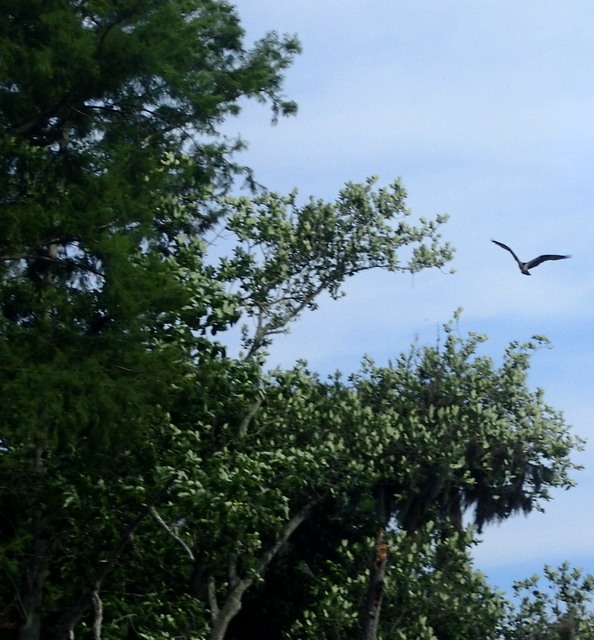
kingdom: Animalia
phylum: Chordata
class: Aves
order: Accipitriformes
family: Pandionidae
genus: Pandion
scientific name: Pandion haliaetus
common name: Osprey
